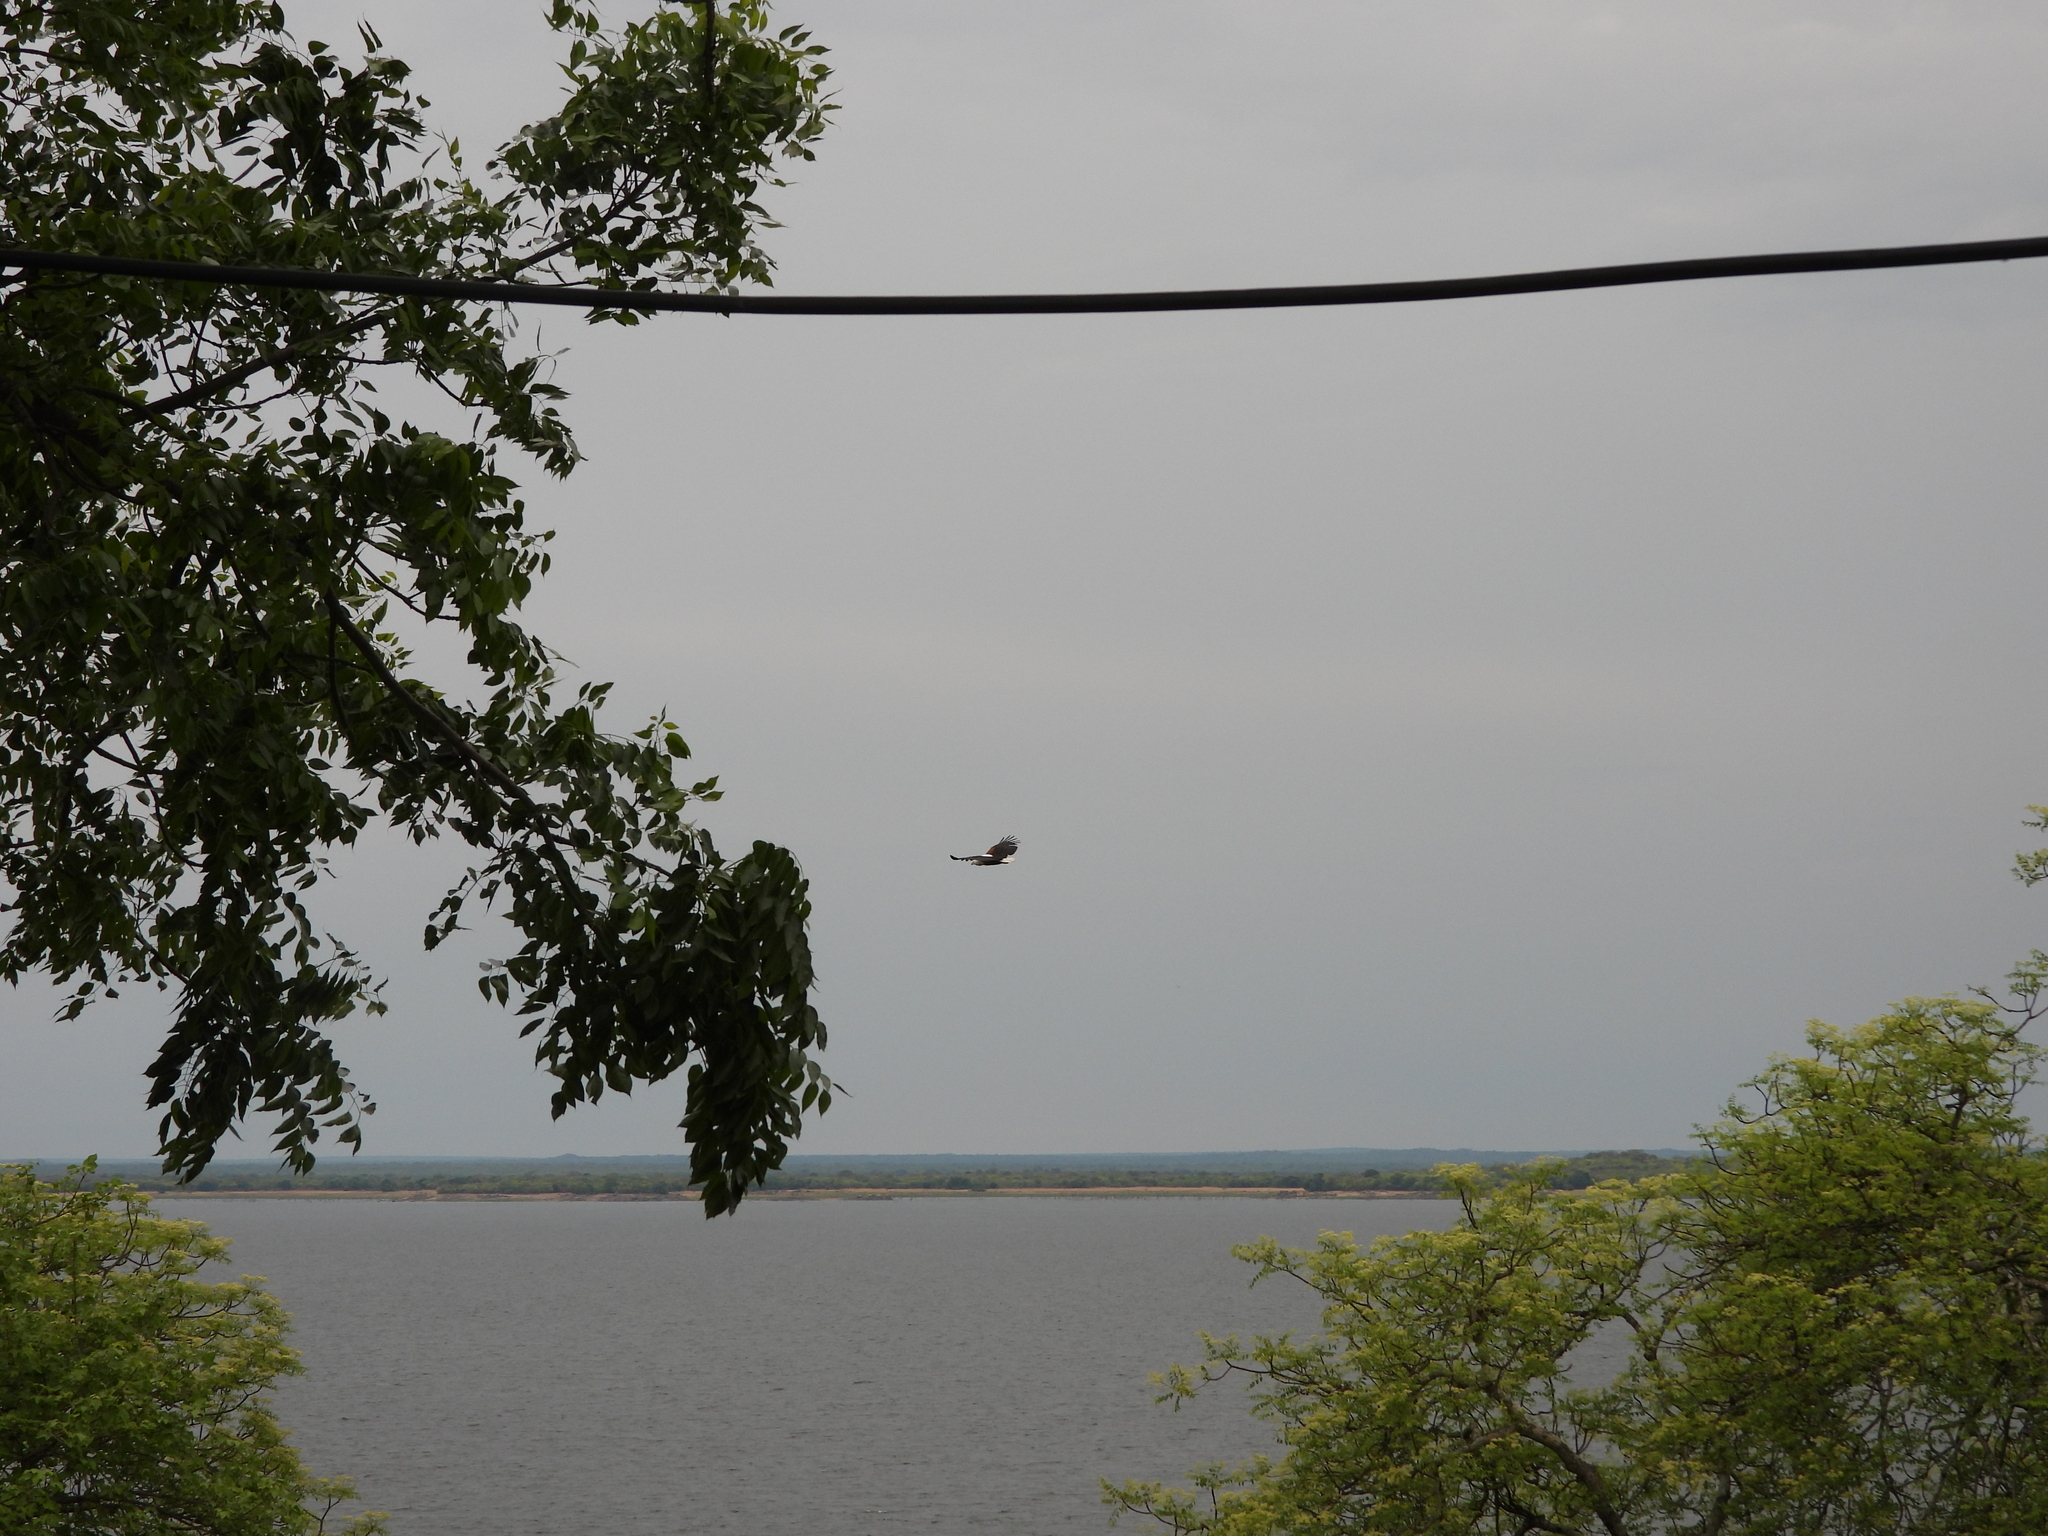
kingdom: Animalia
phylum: Chordata
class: Aves
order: Accipitriformes
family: Accipitridae
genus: Haliaeetus
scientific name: Haliaeetus vocifer
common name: African fish eagle
